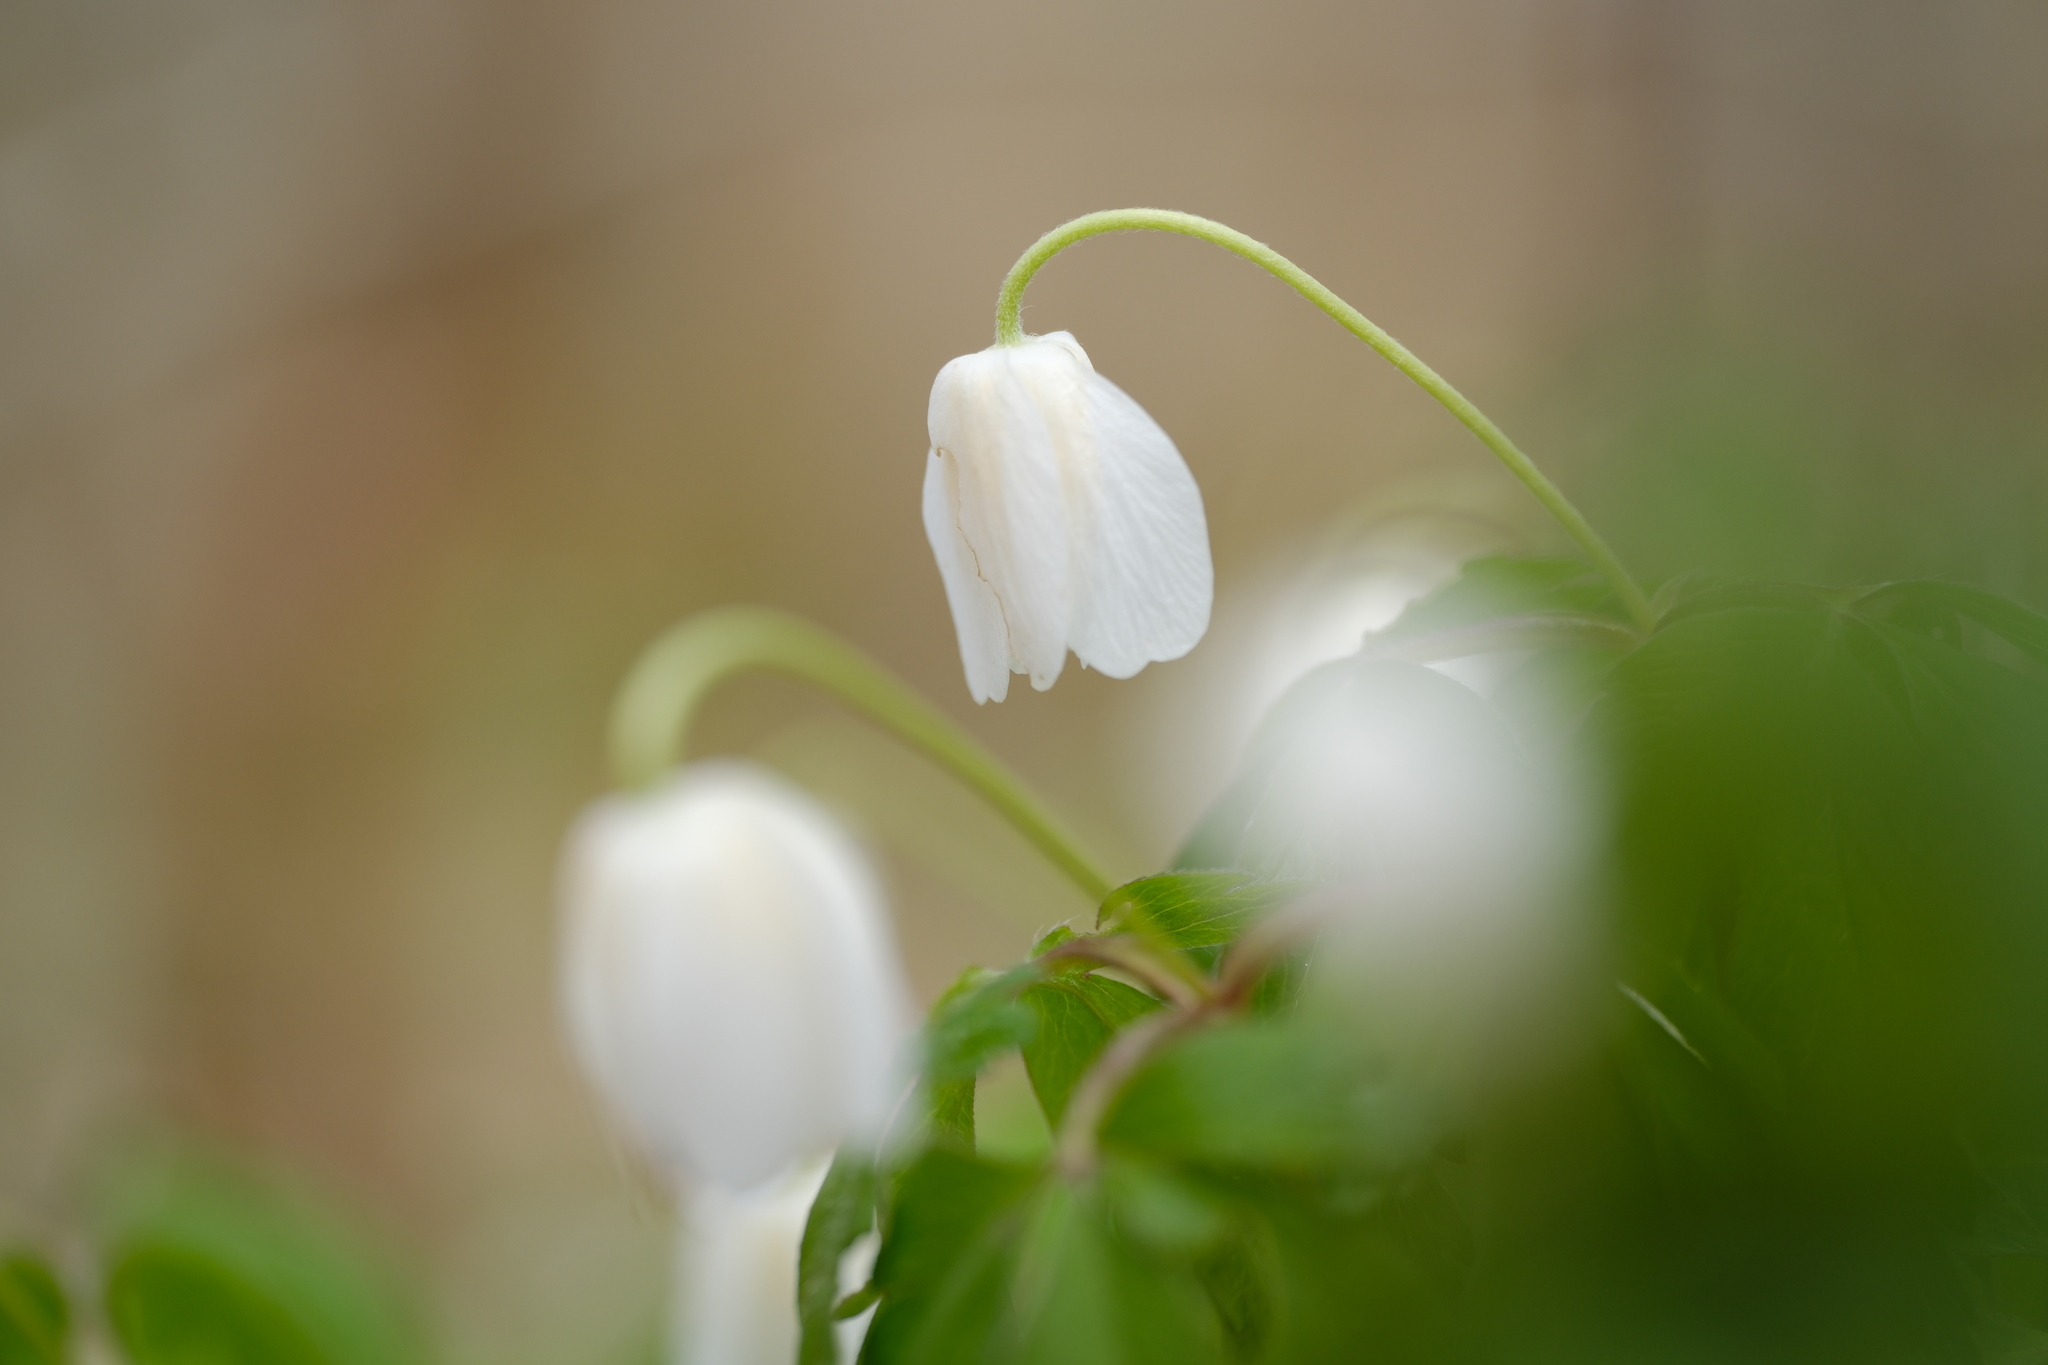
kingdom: Plantae
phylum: Tracheophyta
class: Magnoliopsida
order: Ranunculales
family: Ranunculaceae
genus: Anemone
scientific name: Anemone nemorosa
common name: Wood anemone
